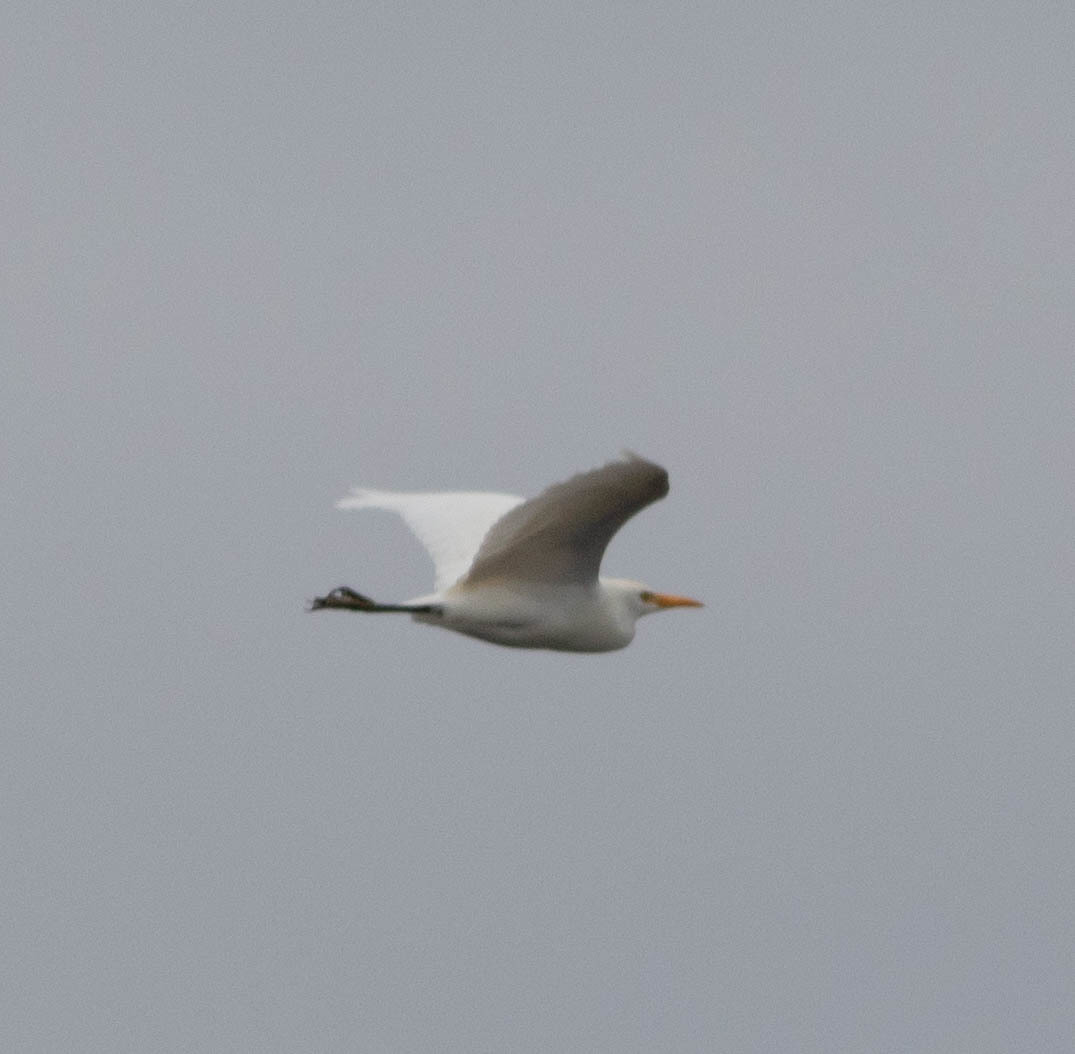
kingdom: Animalia
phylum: Chordata
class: Aves
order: Pelecaniformes
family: Ardeidae
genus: Bubulcus
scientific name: Bubulcus ibis
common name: Cattle egret
